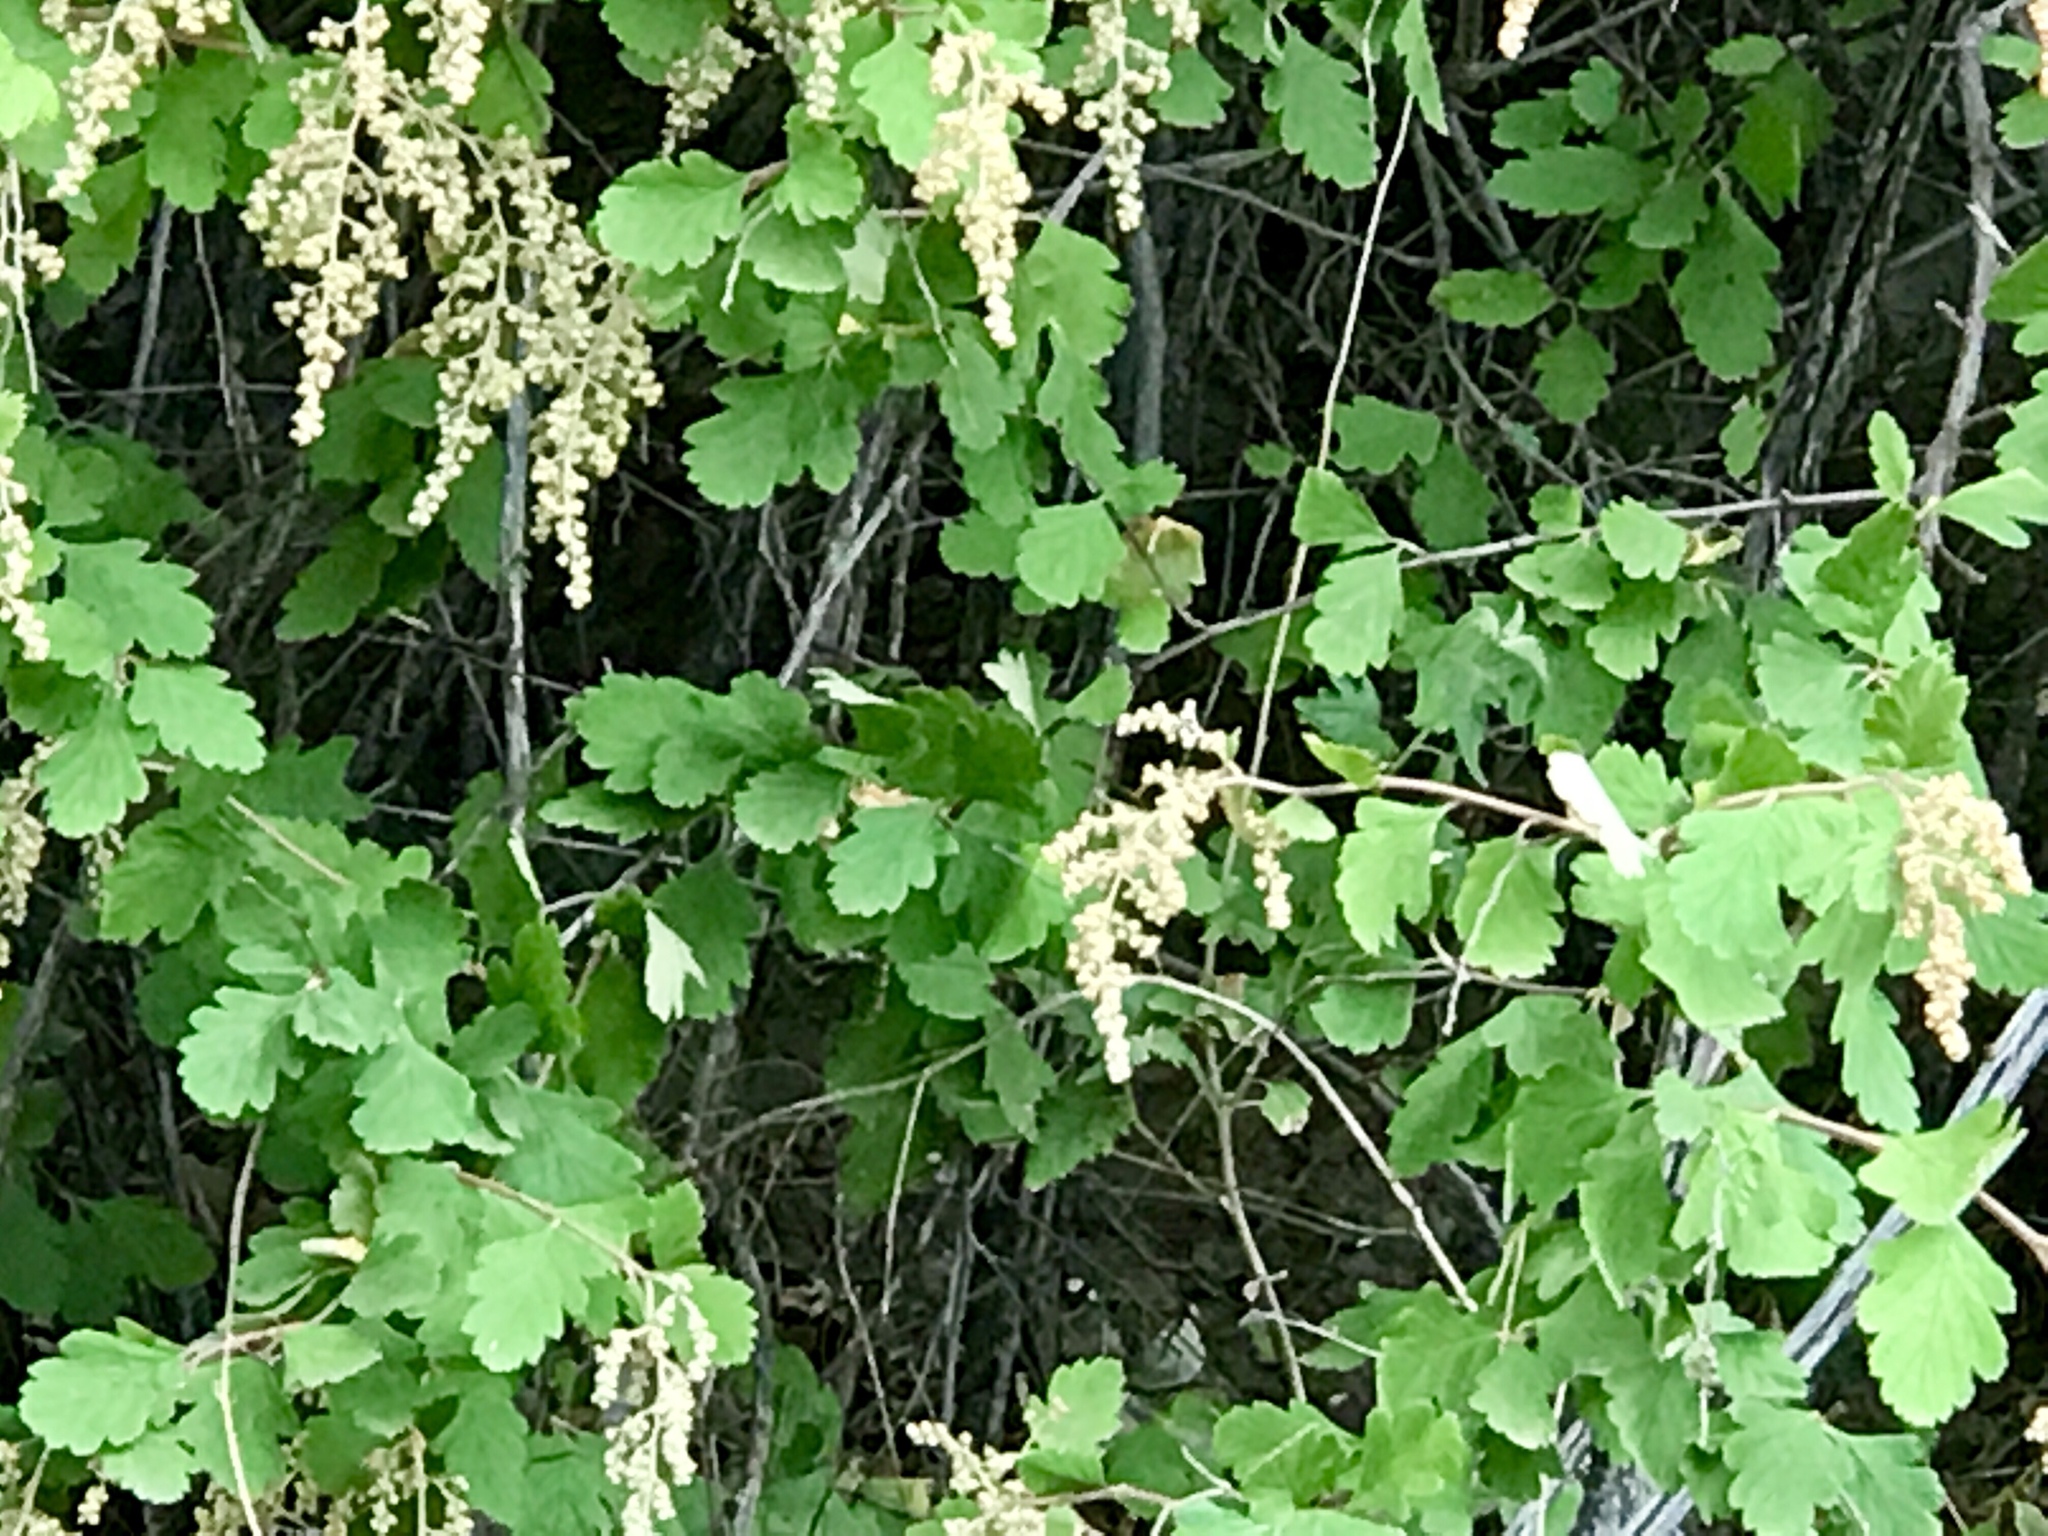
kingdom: Plantae
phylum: Tracheophyta
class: Magnoliopsida
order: Rosales
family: Rosaceae
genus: Holodiscus
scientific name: Holodiscus discolor
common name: Oceanspray
